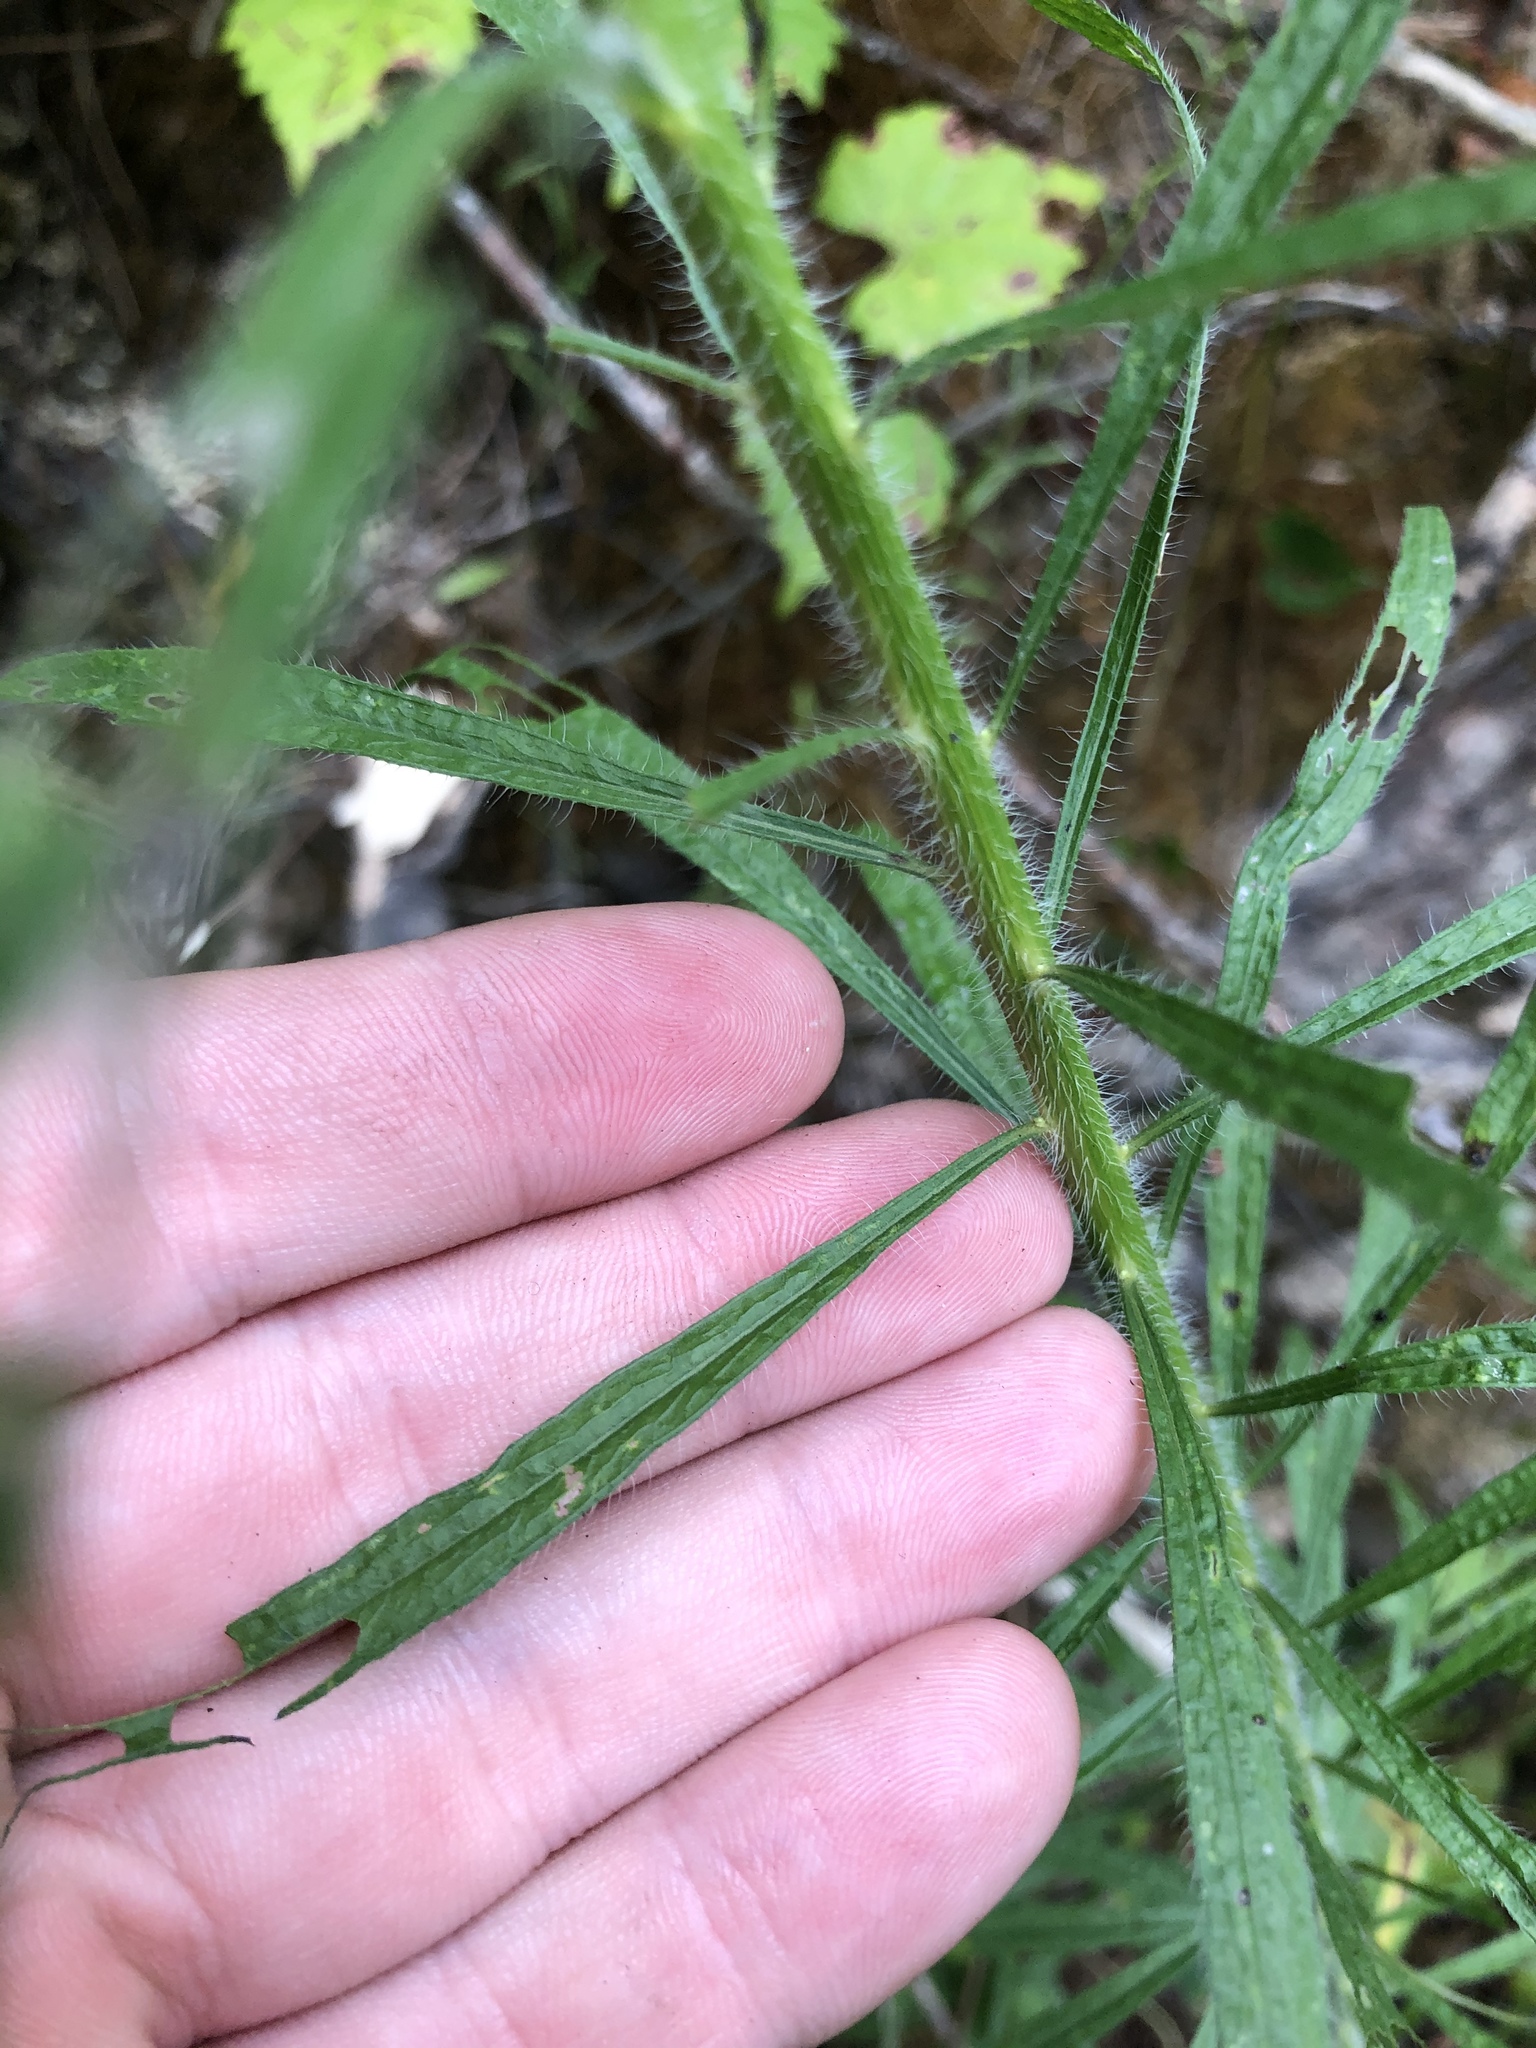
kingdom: Plantae
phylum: Tracheophyta
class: Magnoliopsida
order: Asterales
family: Asteraceae
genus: Erigeron
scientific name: Erigeron canadensis
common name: Canadian fleabane
